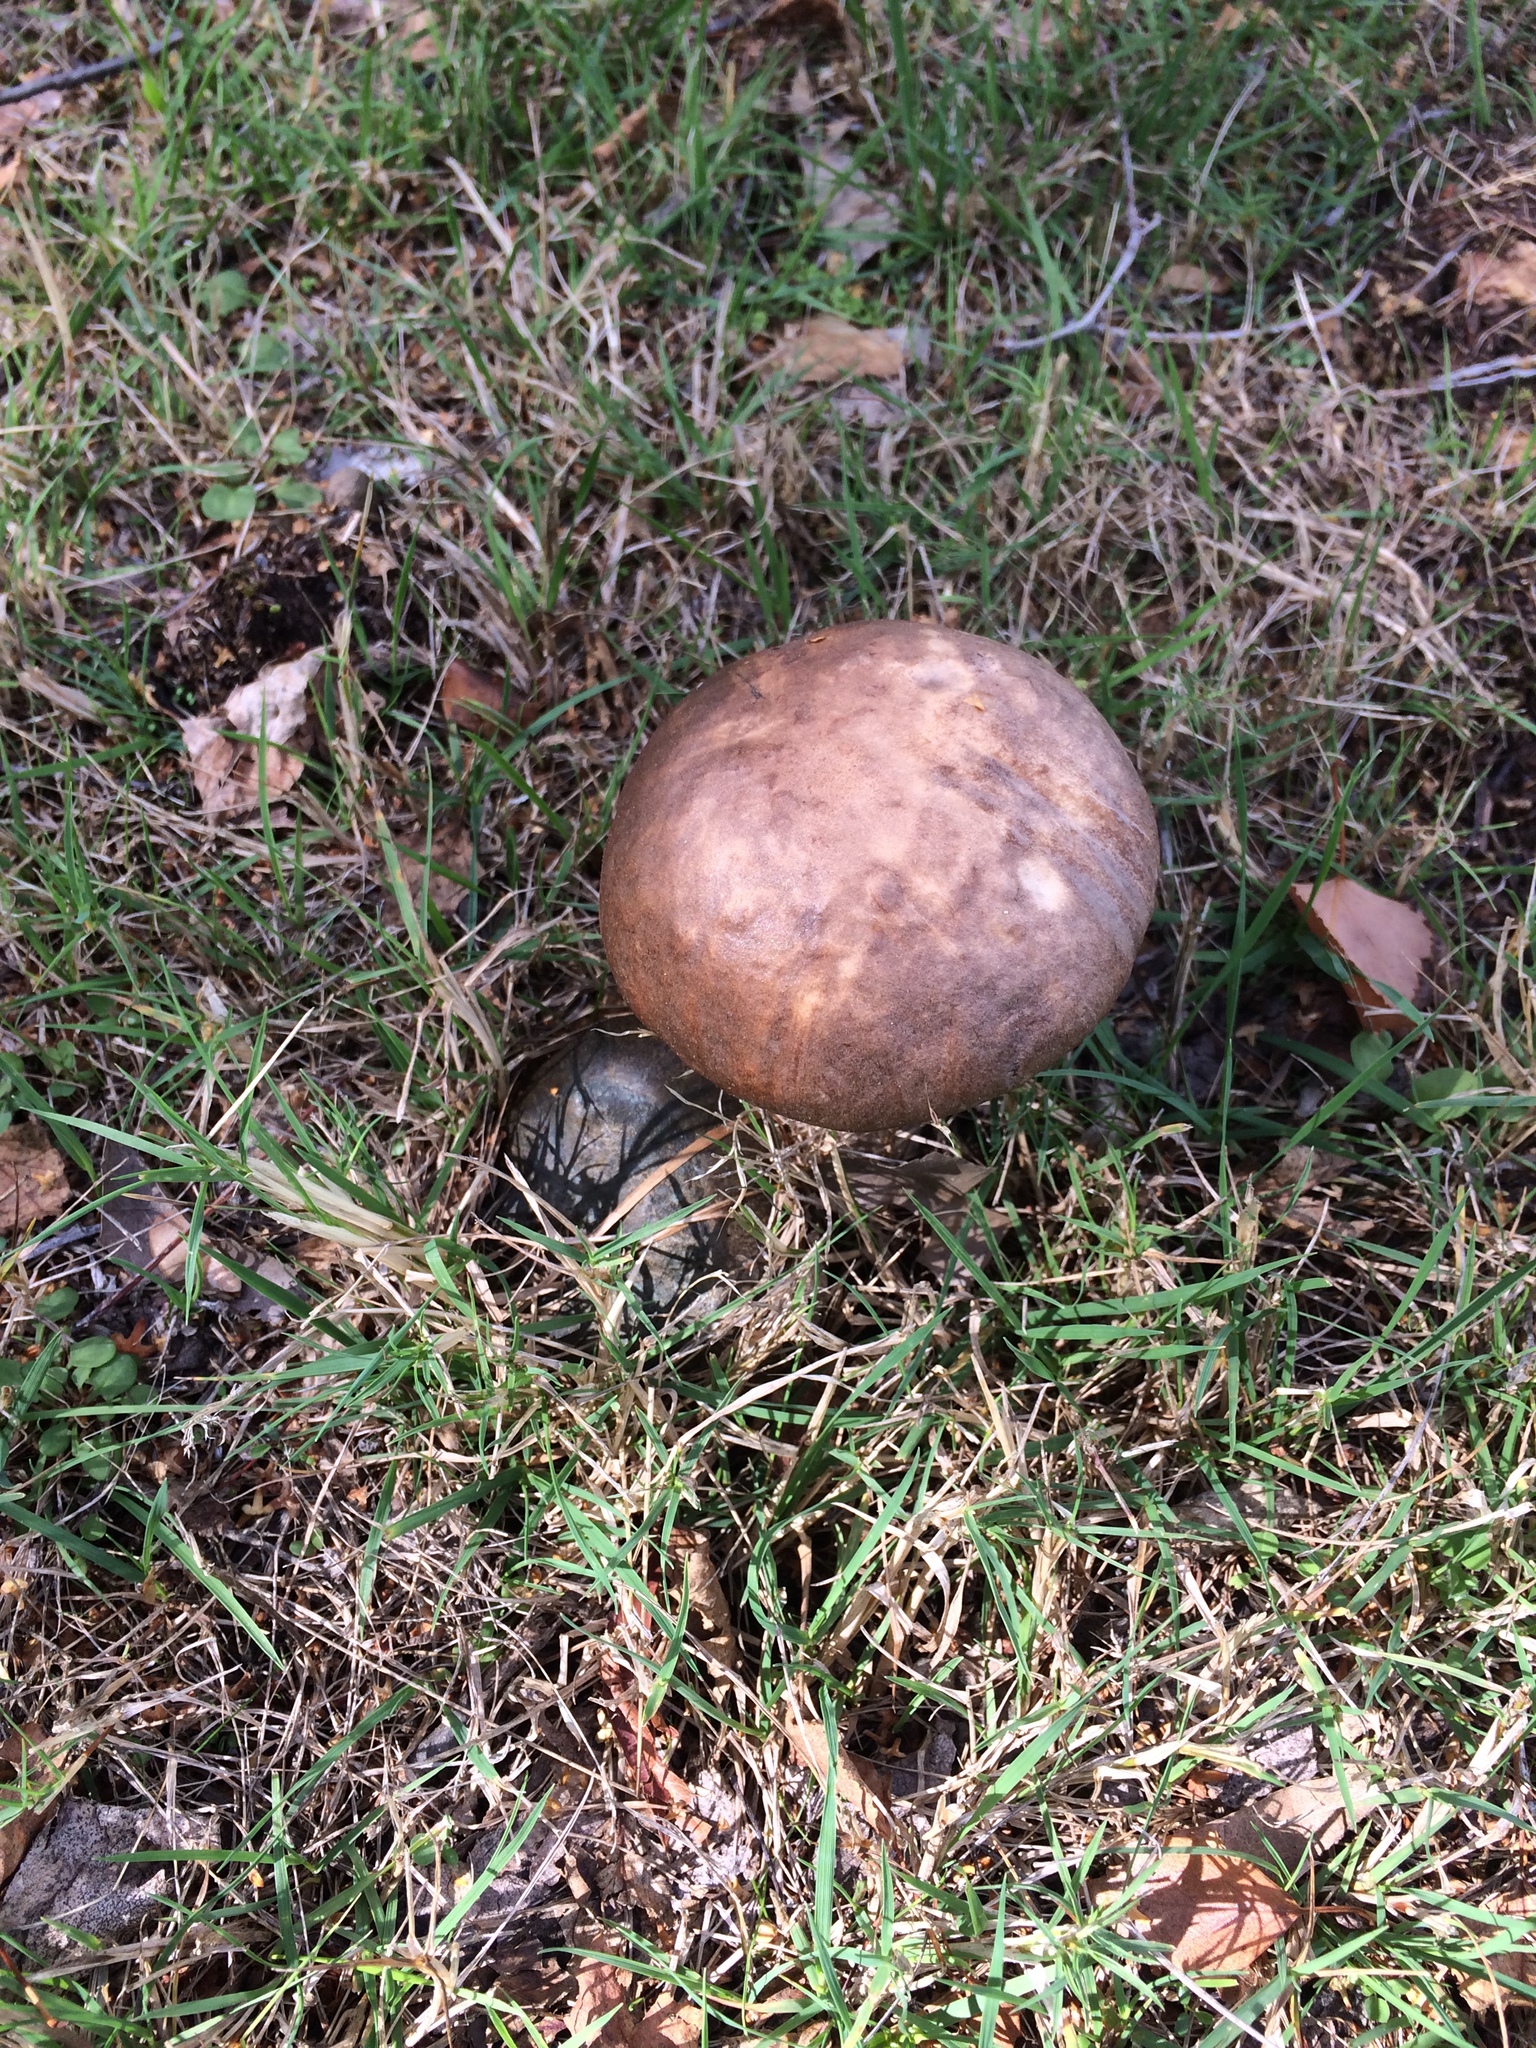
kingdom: Fungi
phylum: Basidiomycota
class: Agaricomycetes
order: Boletales
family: Boletaceae
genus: Leccinum
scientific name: Leccinum scabrum
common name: Blushing bolete
